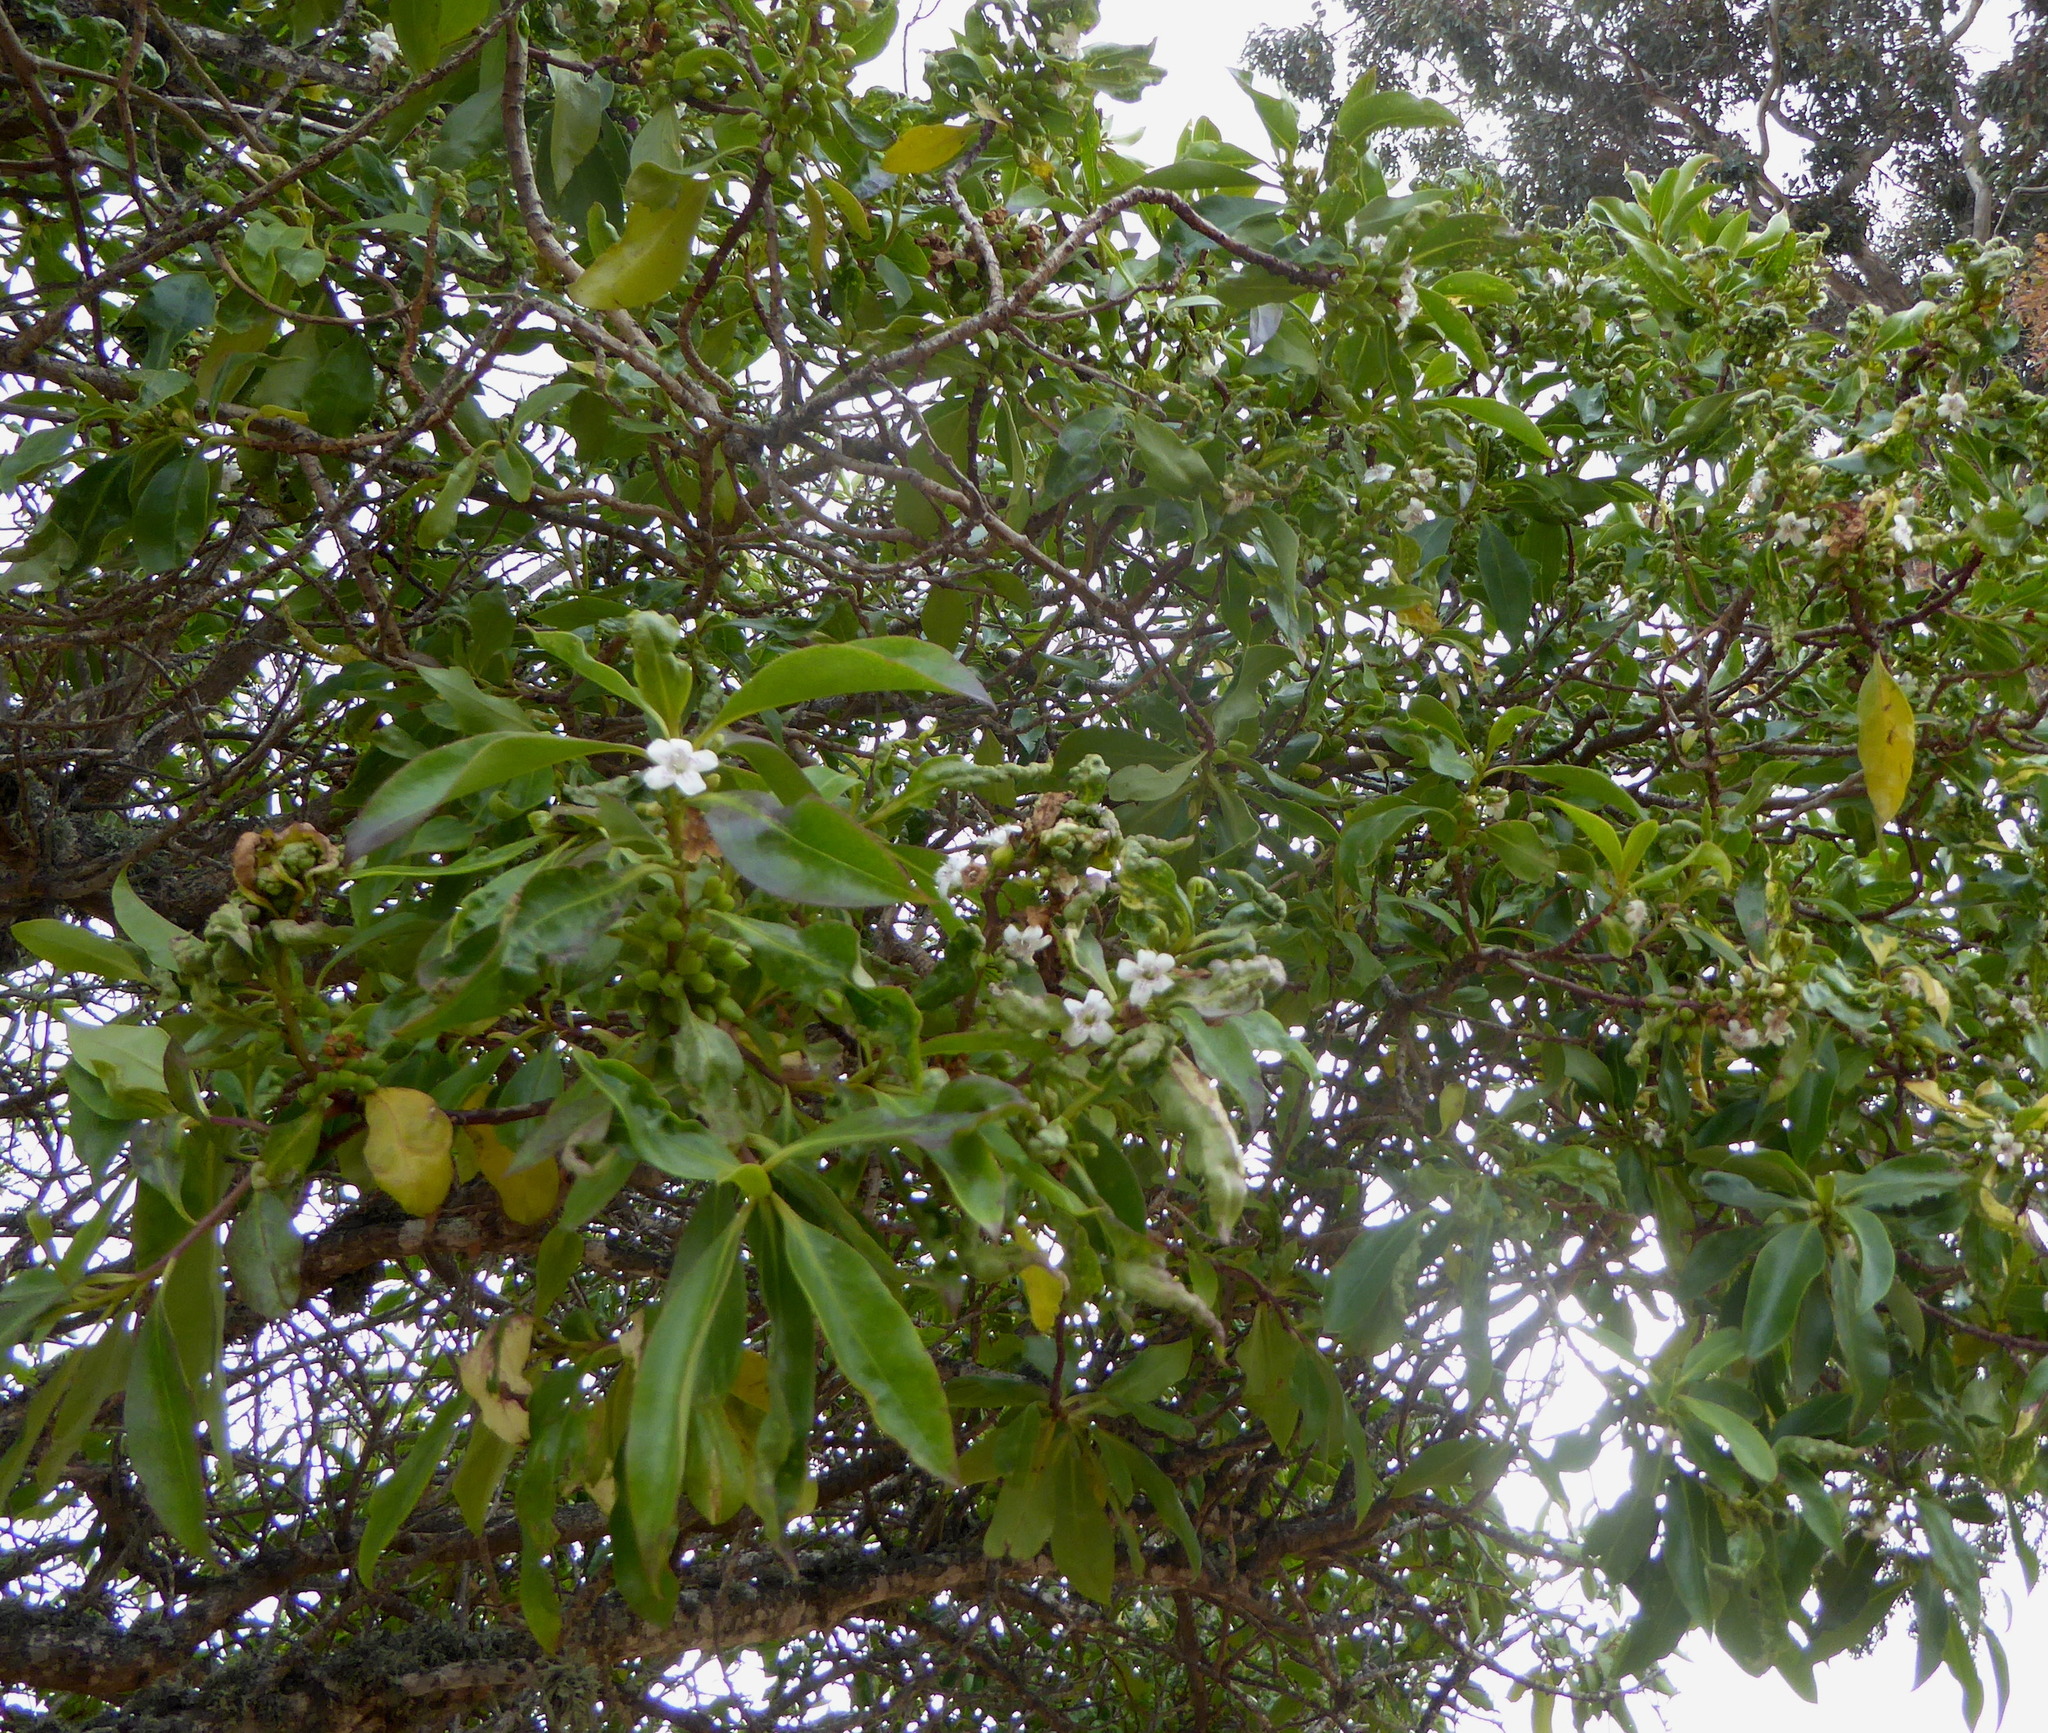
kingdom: Plantae
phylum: Tracheophyta
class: Magnoliopsida
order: Lamiales
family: Scrophulariaceae
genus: Myoporum
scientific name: Myoporum laetum
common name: Ngaio tree
